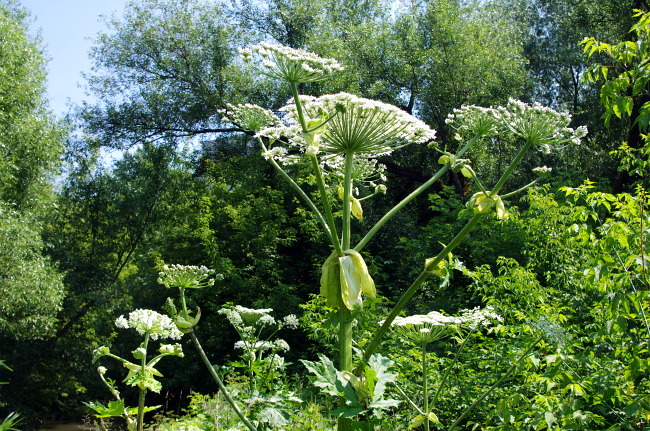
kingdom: Plantae
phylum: Tracheophyta
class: Magnoliopsida
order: Apiales
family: Apiaceae
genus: Heracleum
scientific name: Heracleum sosnowskyi
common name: Sosnowsky's hogweed
